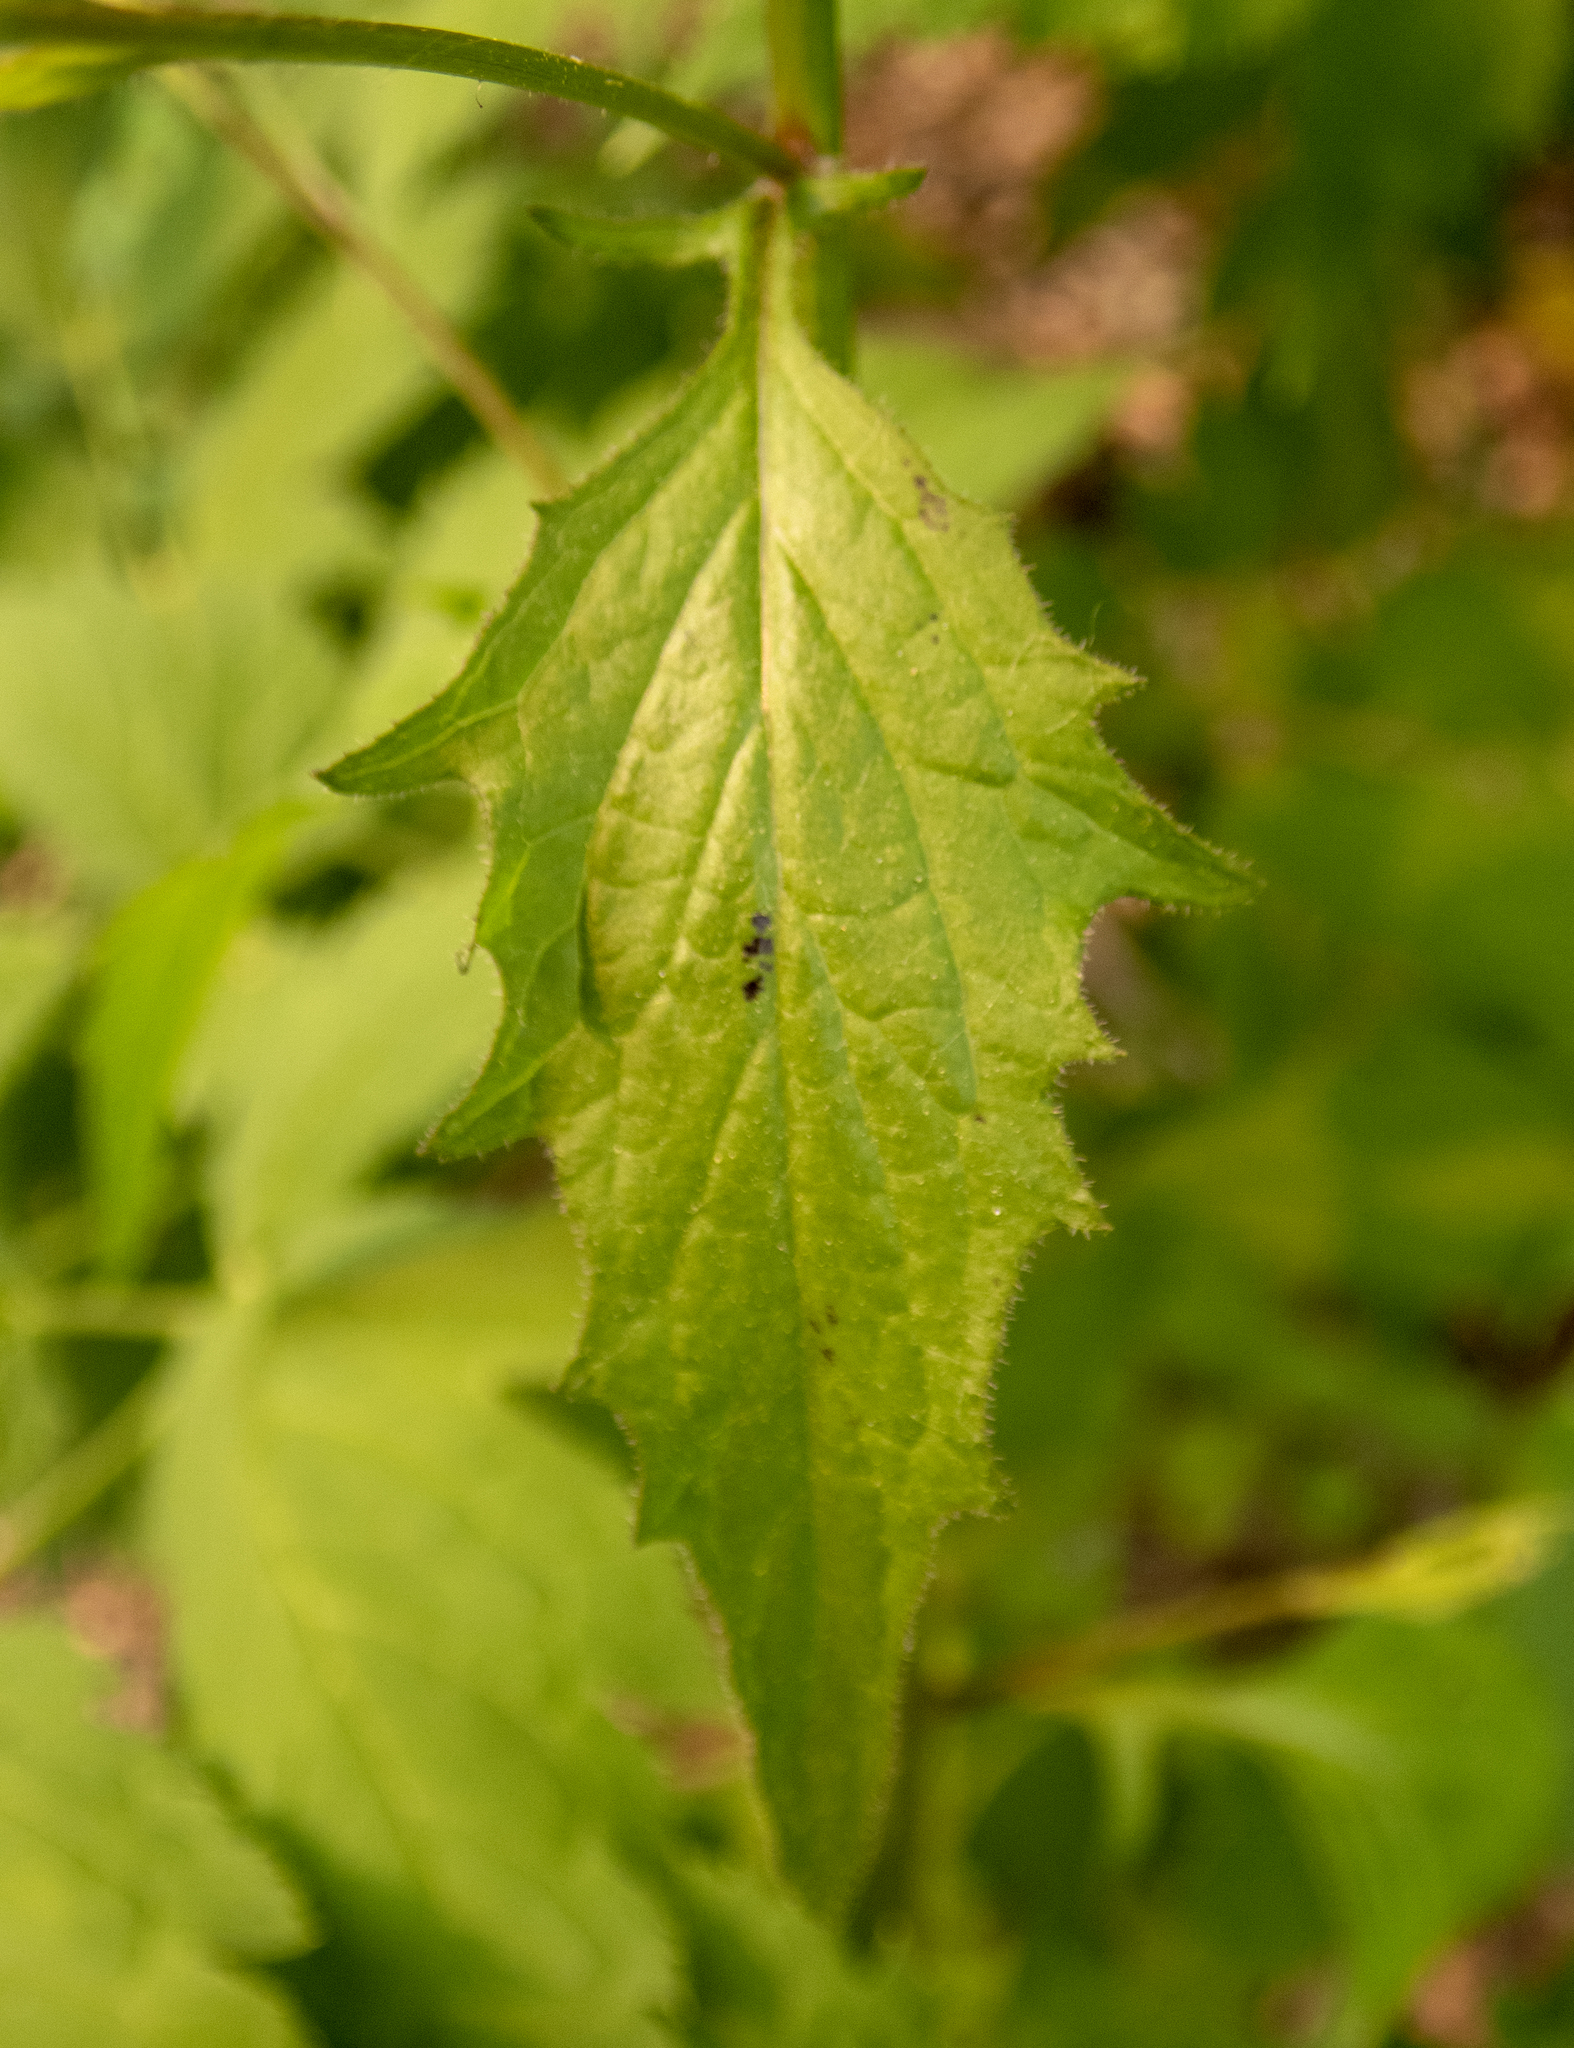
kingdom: Plantae
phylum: Tracheophyta
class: Magnoliopsida
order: Asterales
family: Asteraceae
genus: Lapsana
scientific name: Lapsana communis
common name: Nipplewort
